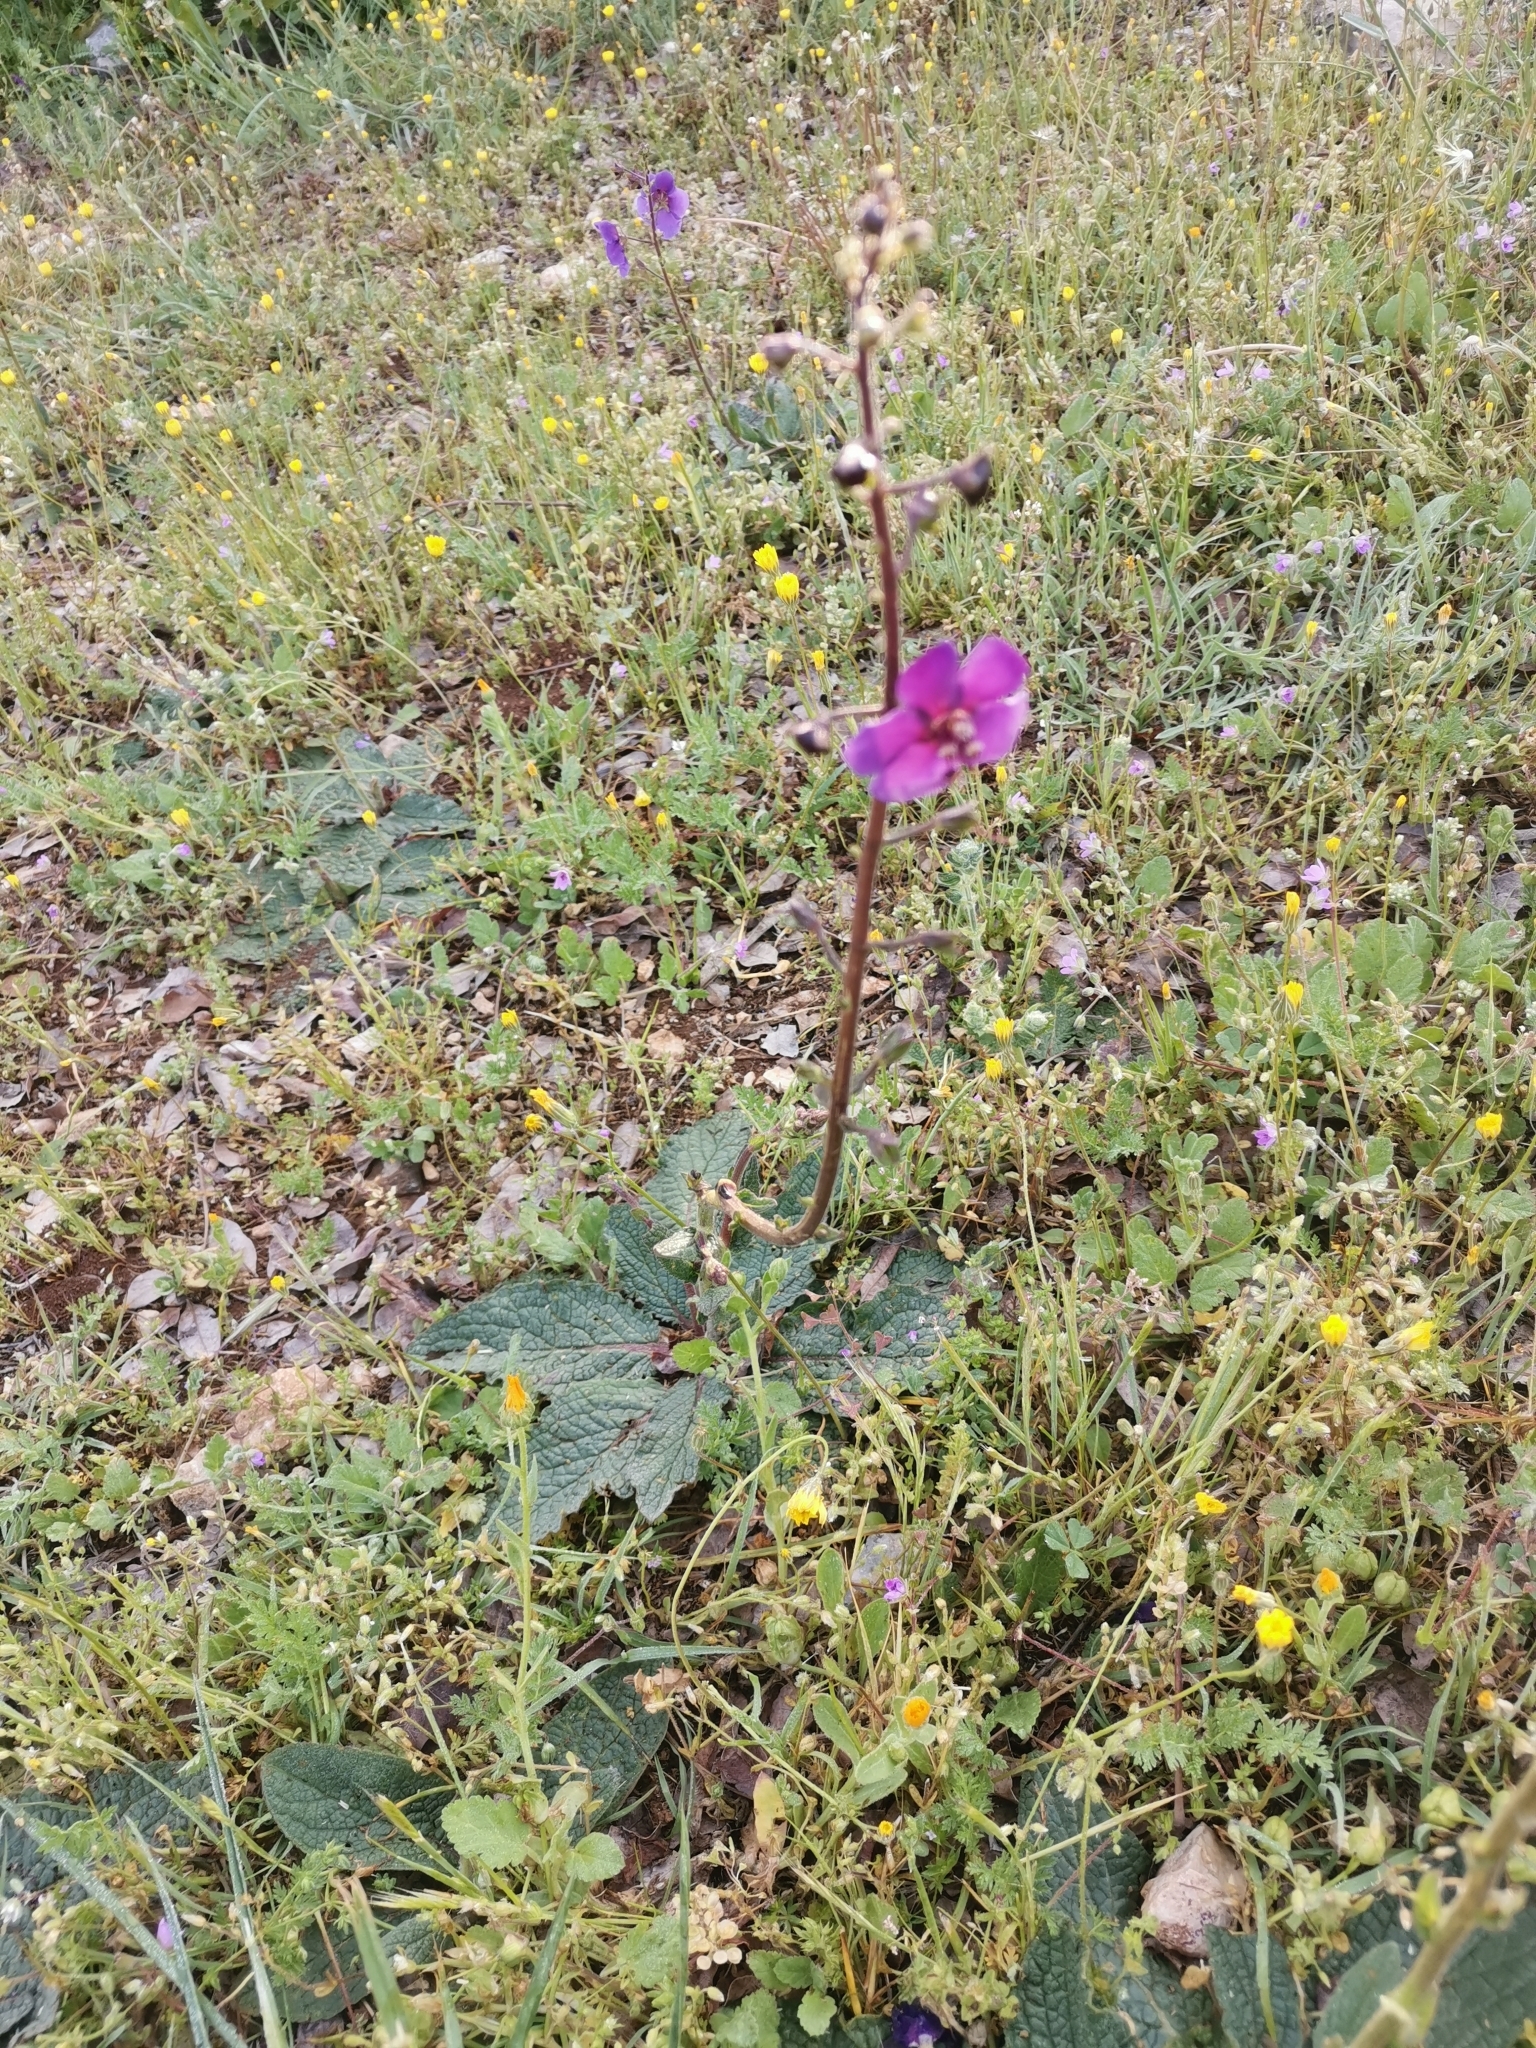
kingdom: Plantae
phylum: Tracheophyta
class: Magnoliopsida
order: Lamiales
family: Scrophulariaceae
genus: Verbascum
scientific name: Verbascum phoeniceum
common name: Purple mullein
